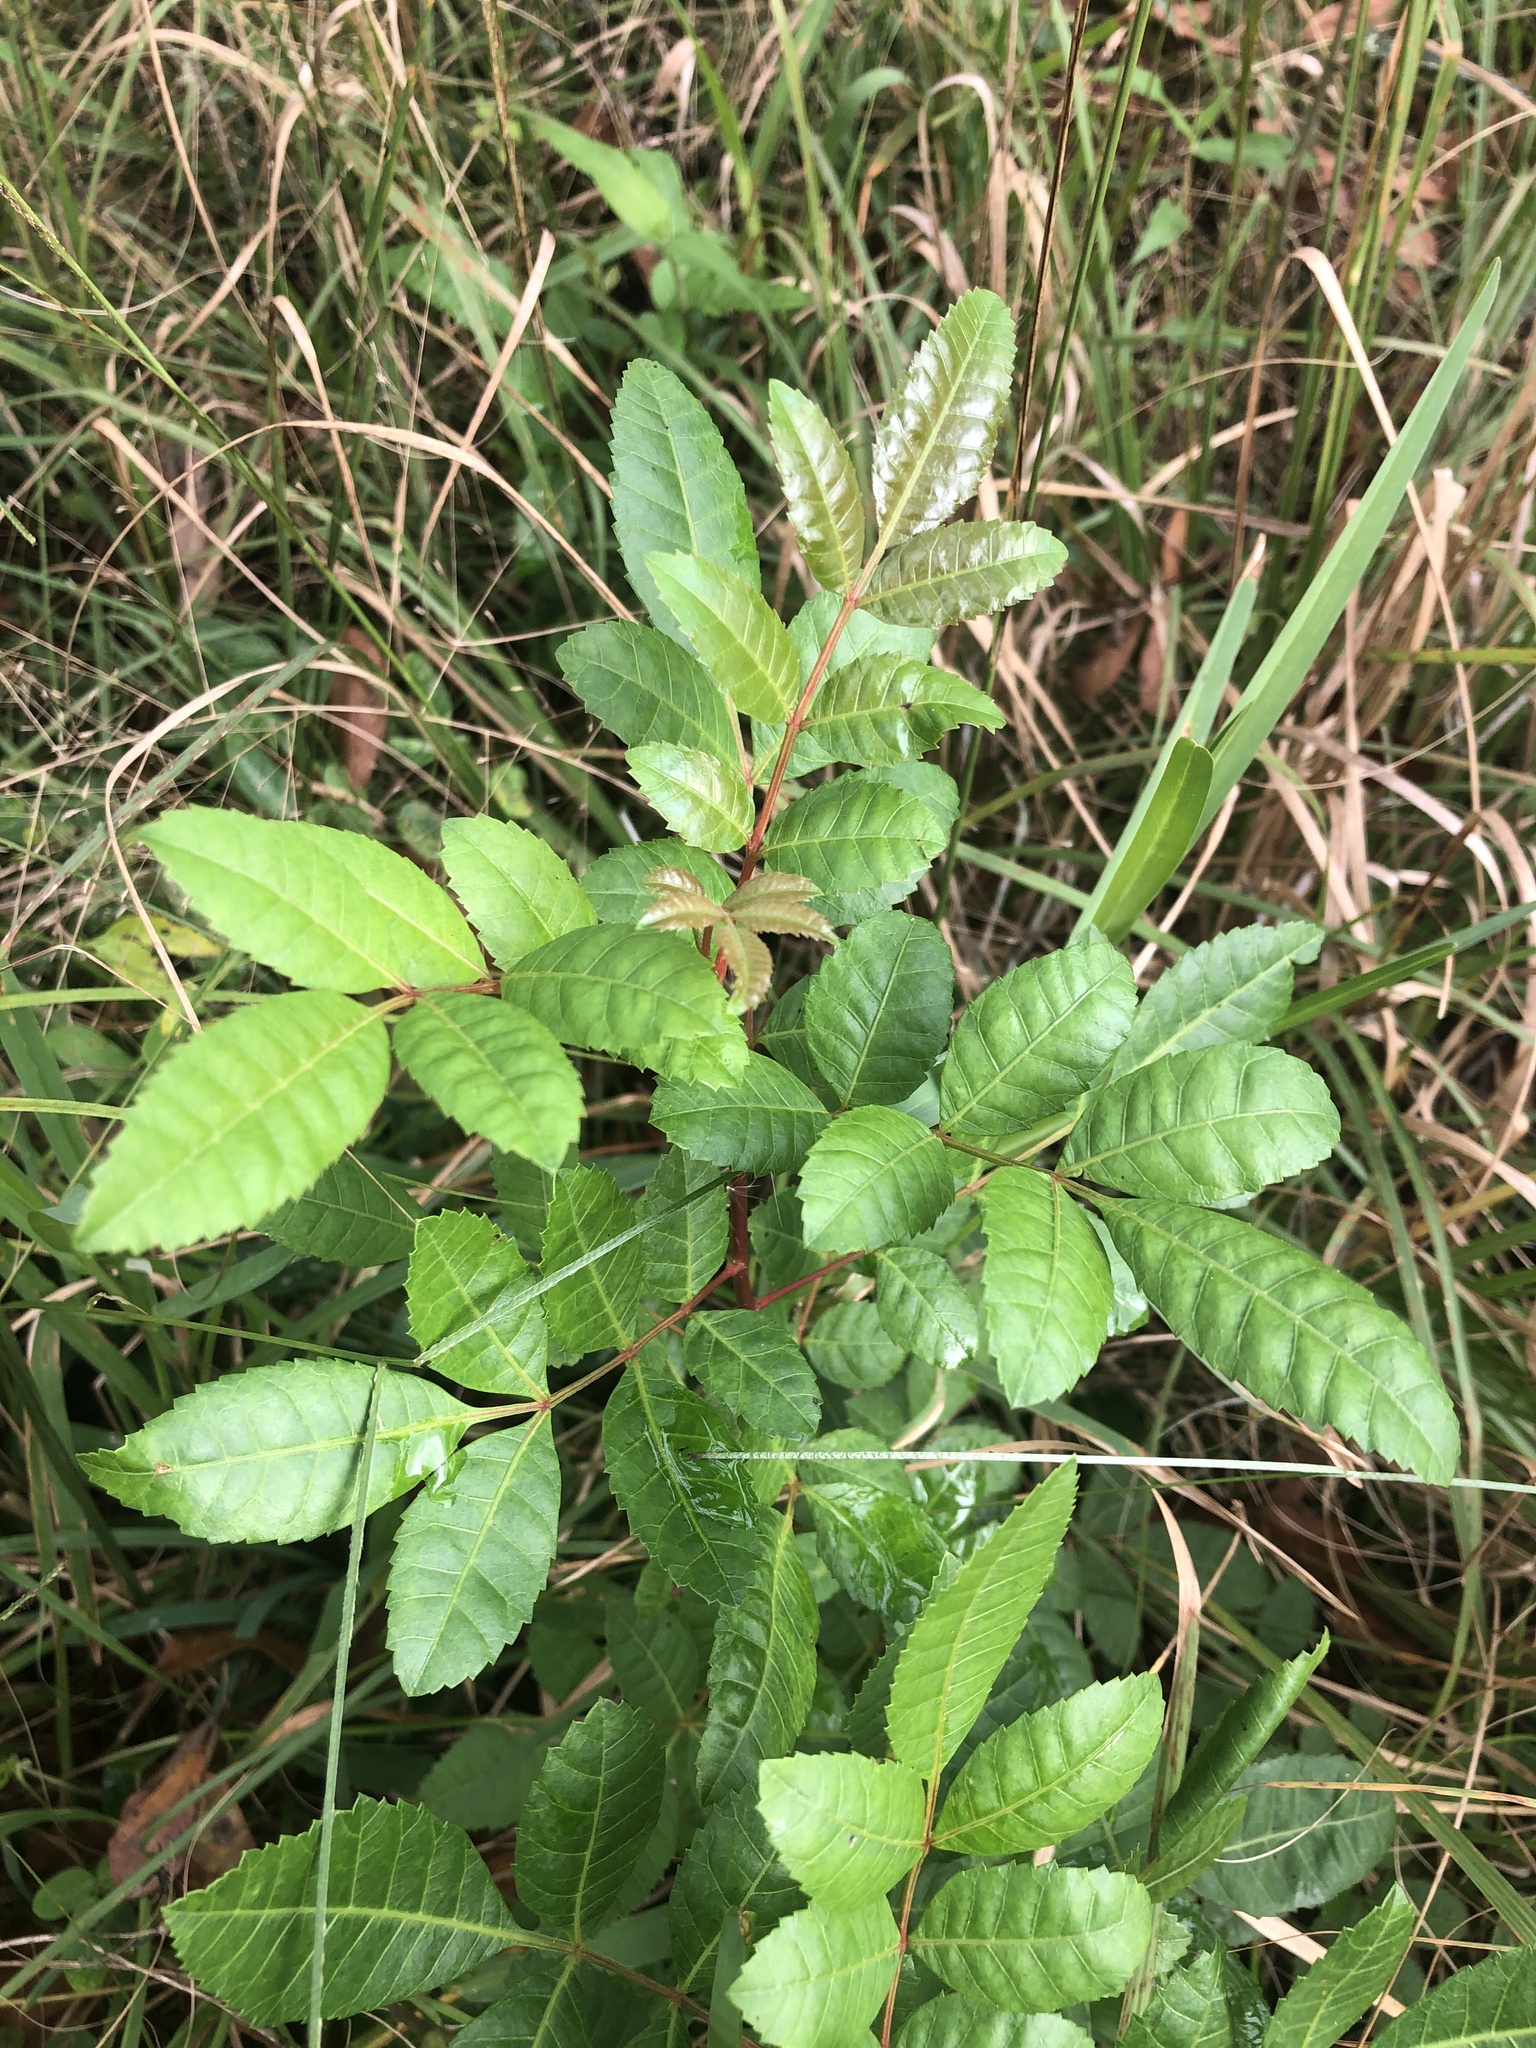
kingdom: Plantae
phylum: Tracheophyta
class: Magnoliopsida
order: Sapindales
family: Anacardiaceae
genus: Schinus
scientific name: Schinus terebinthifolia
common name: Brazilian peppertree
